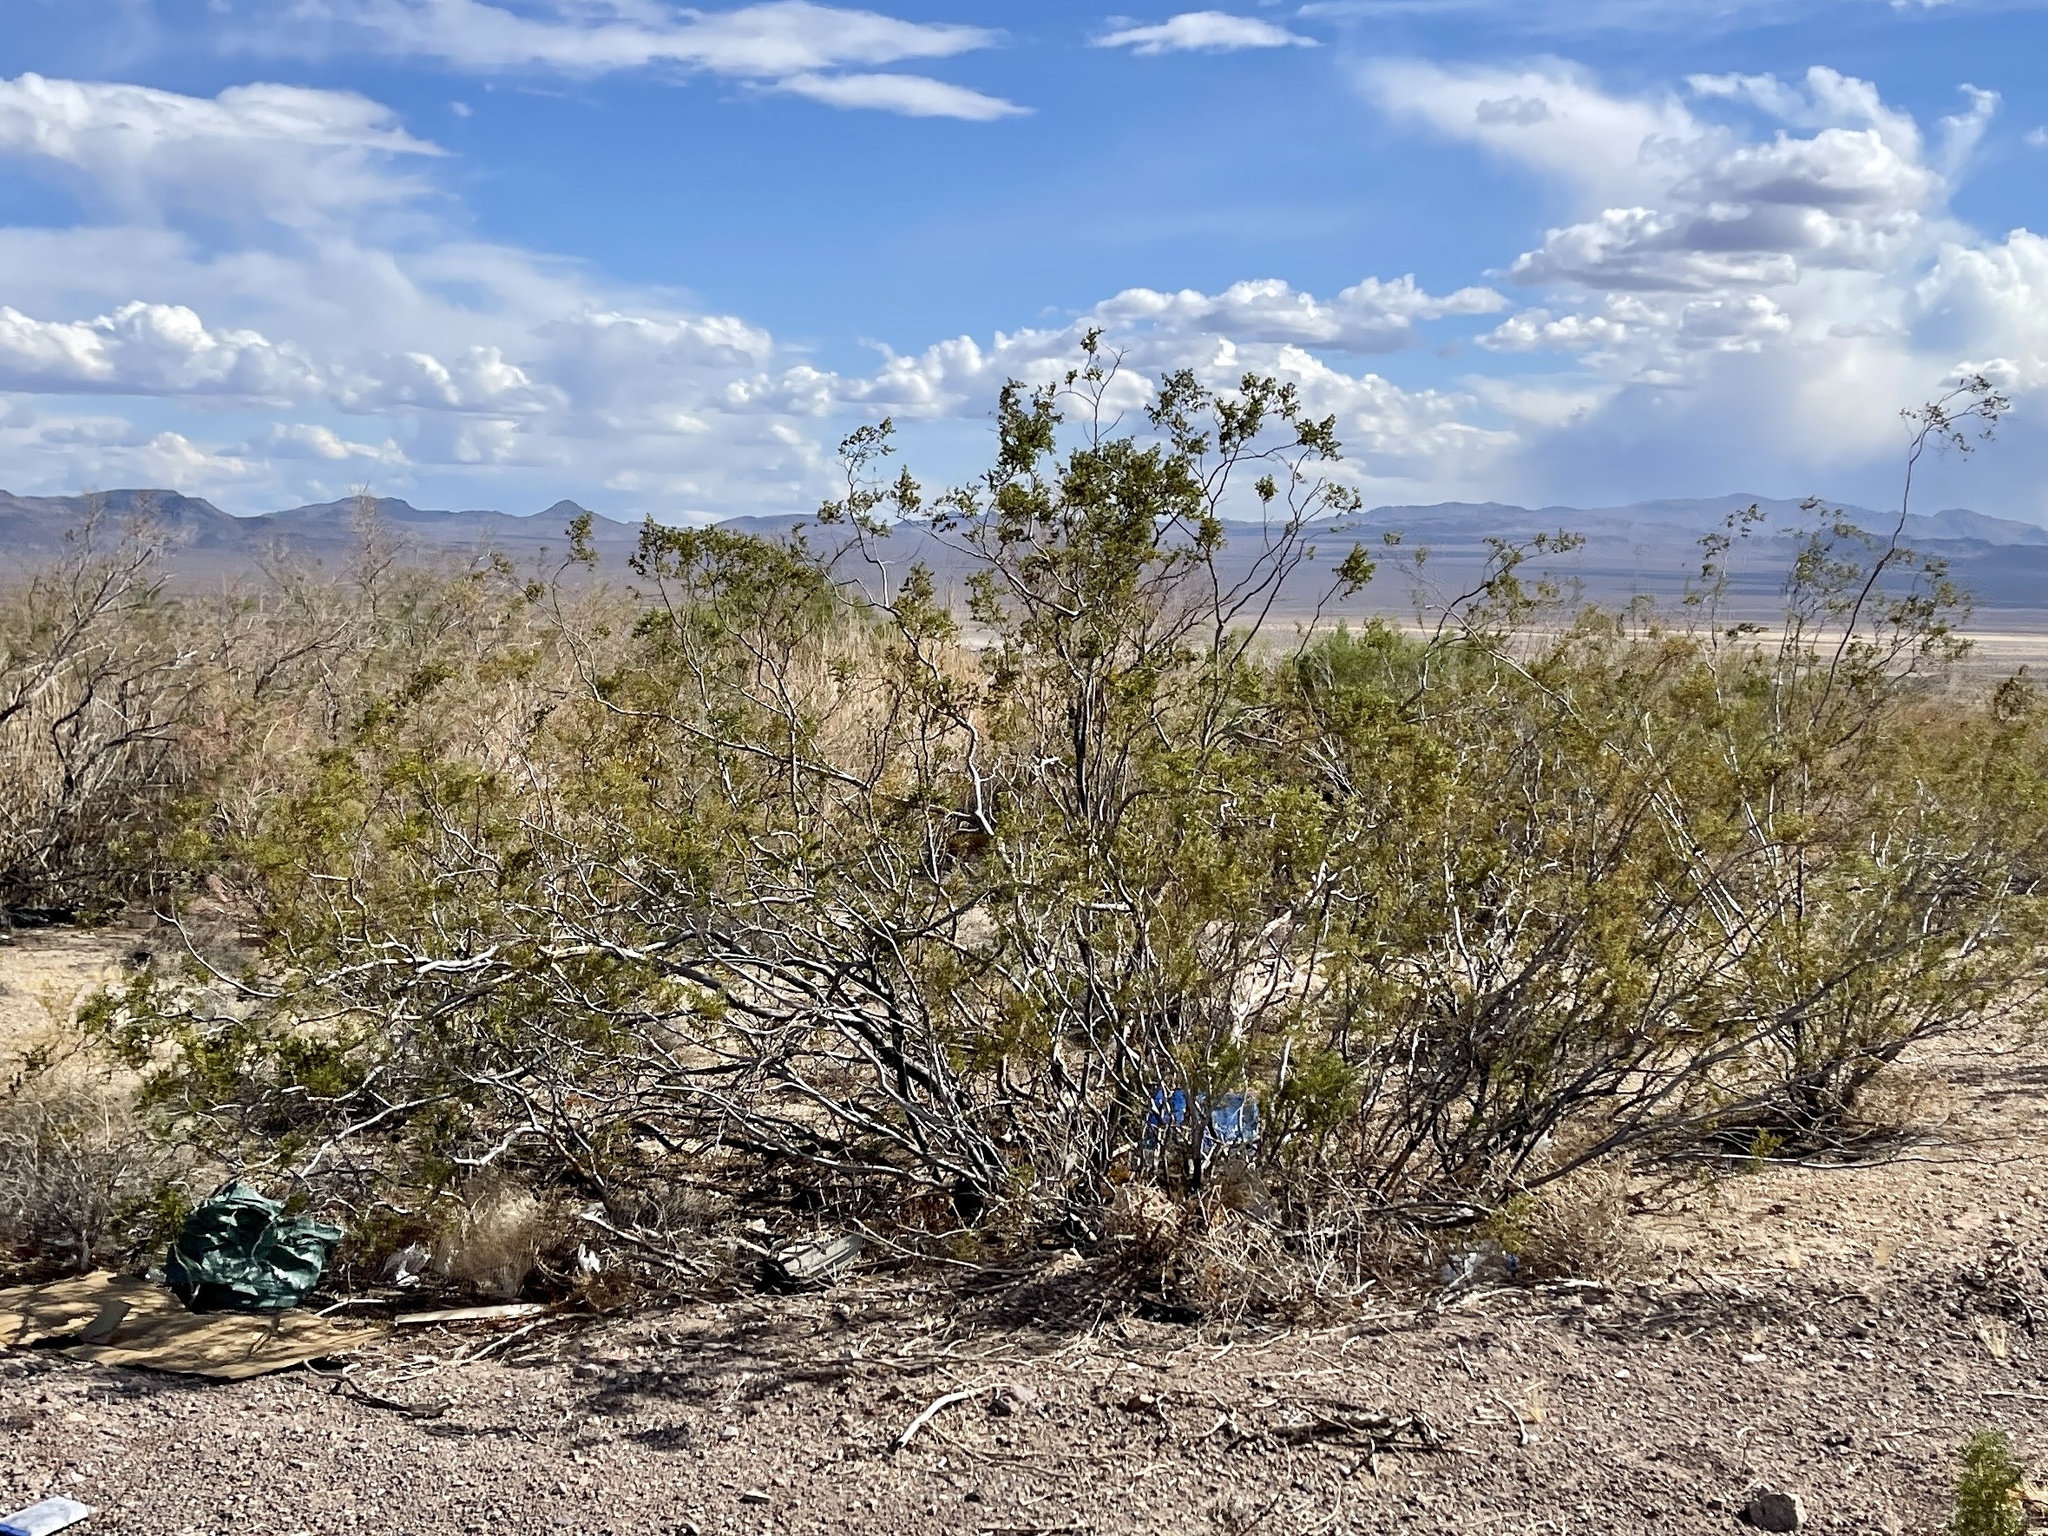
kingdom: Plantae
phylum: Tracheophyta
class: Magnoliopsida
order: Zygophyllales
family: Zygophyllaceae
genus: Larrea
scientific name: Larrea tridentata
